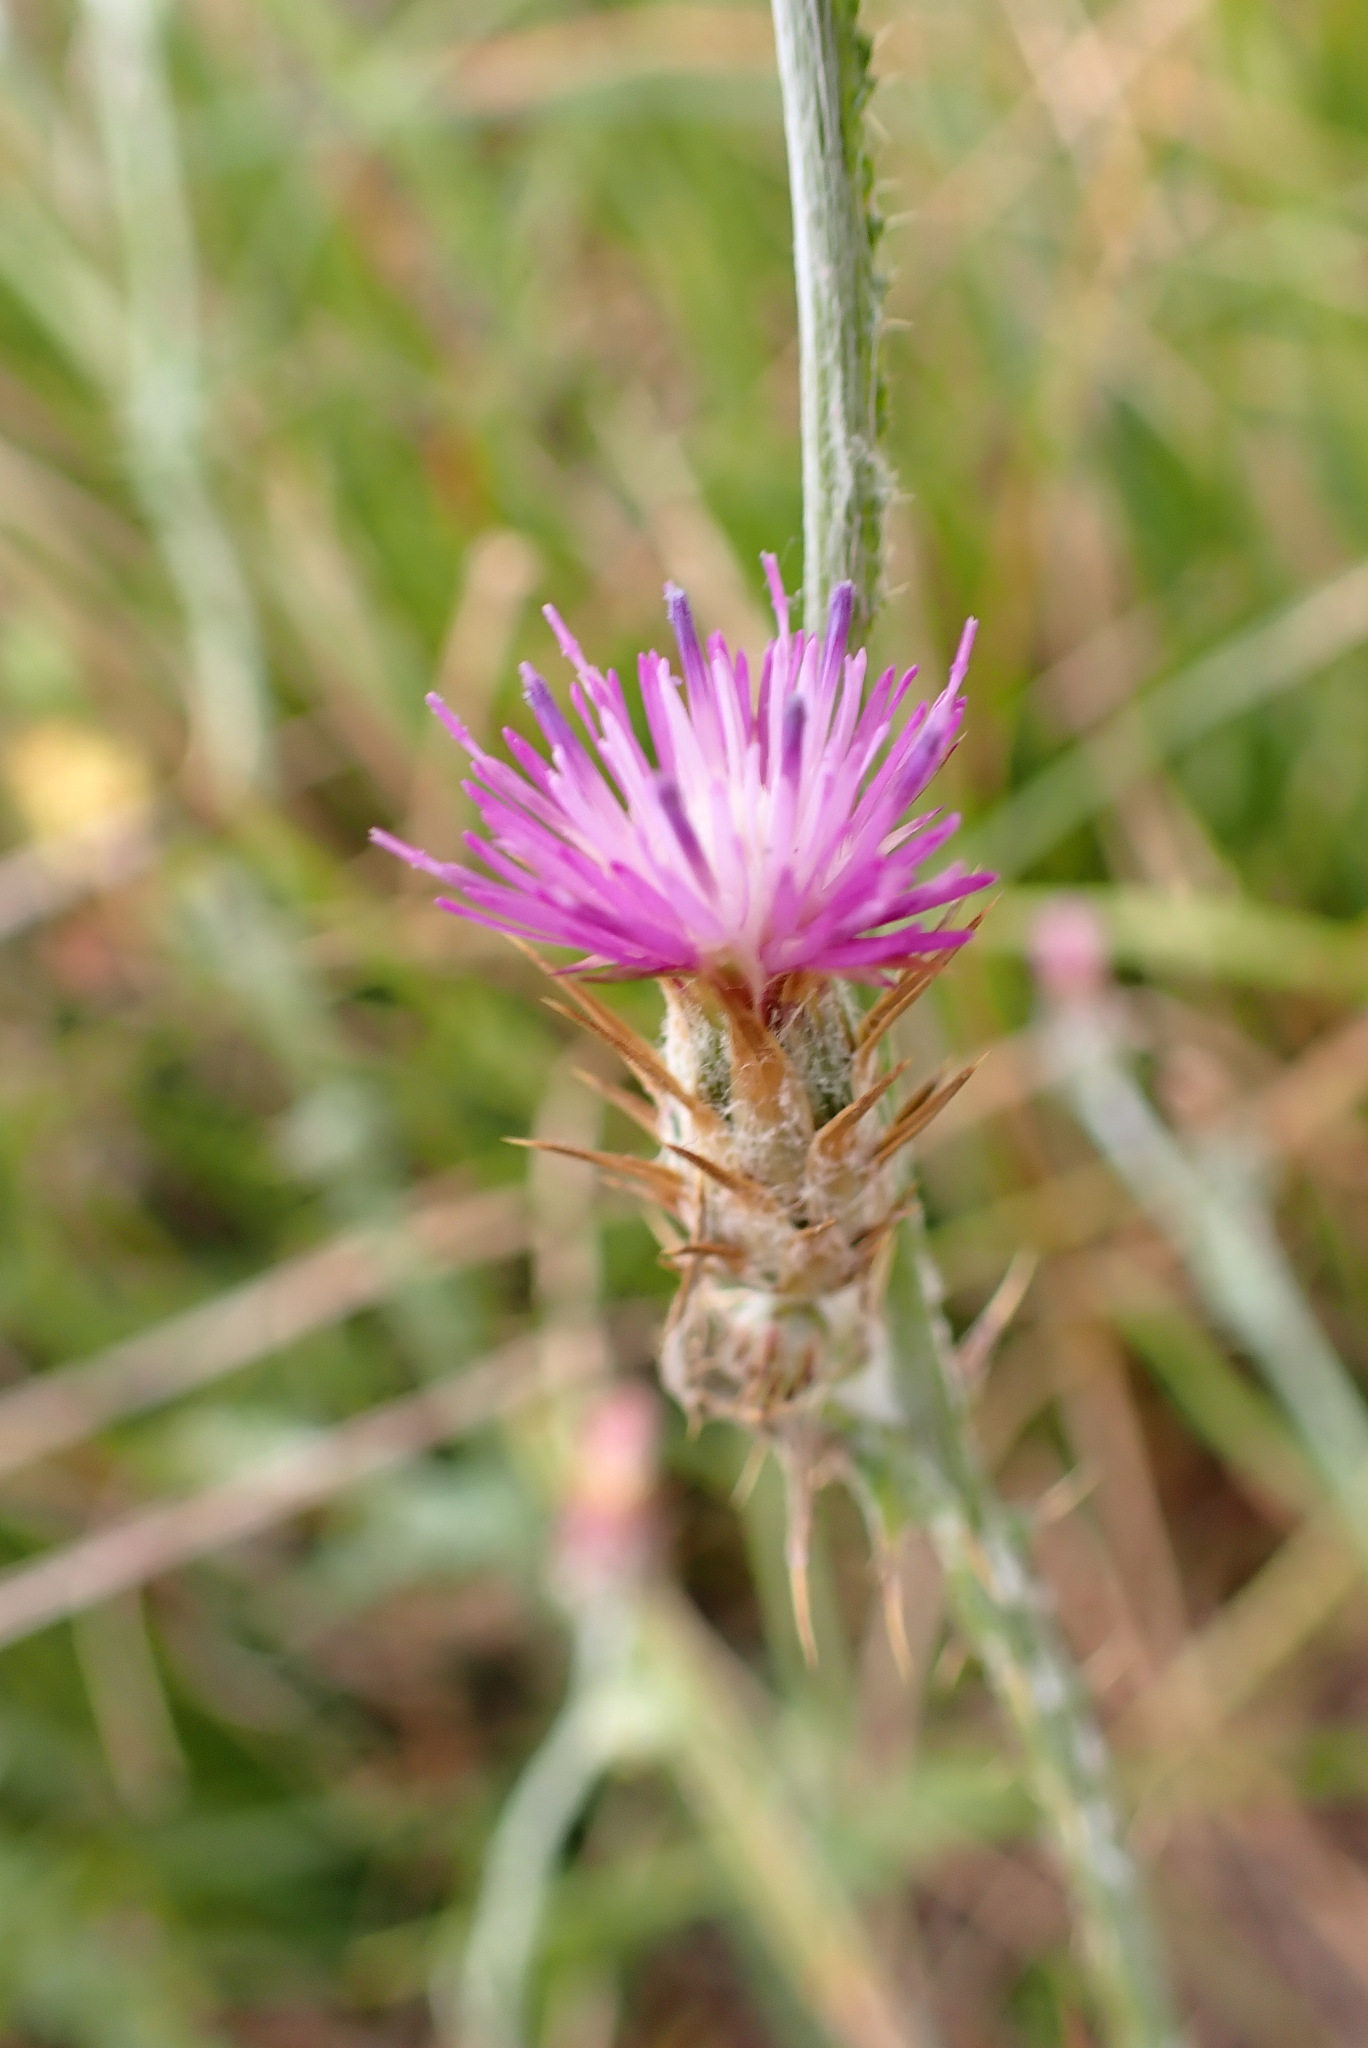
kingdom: Plantae
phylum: Tracheophyta
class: Magnoliopsida
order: Asterales
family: Asteraceae
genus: Carduus
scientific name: Carduus pycnocephalus
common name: Plymouth thistle
